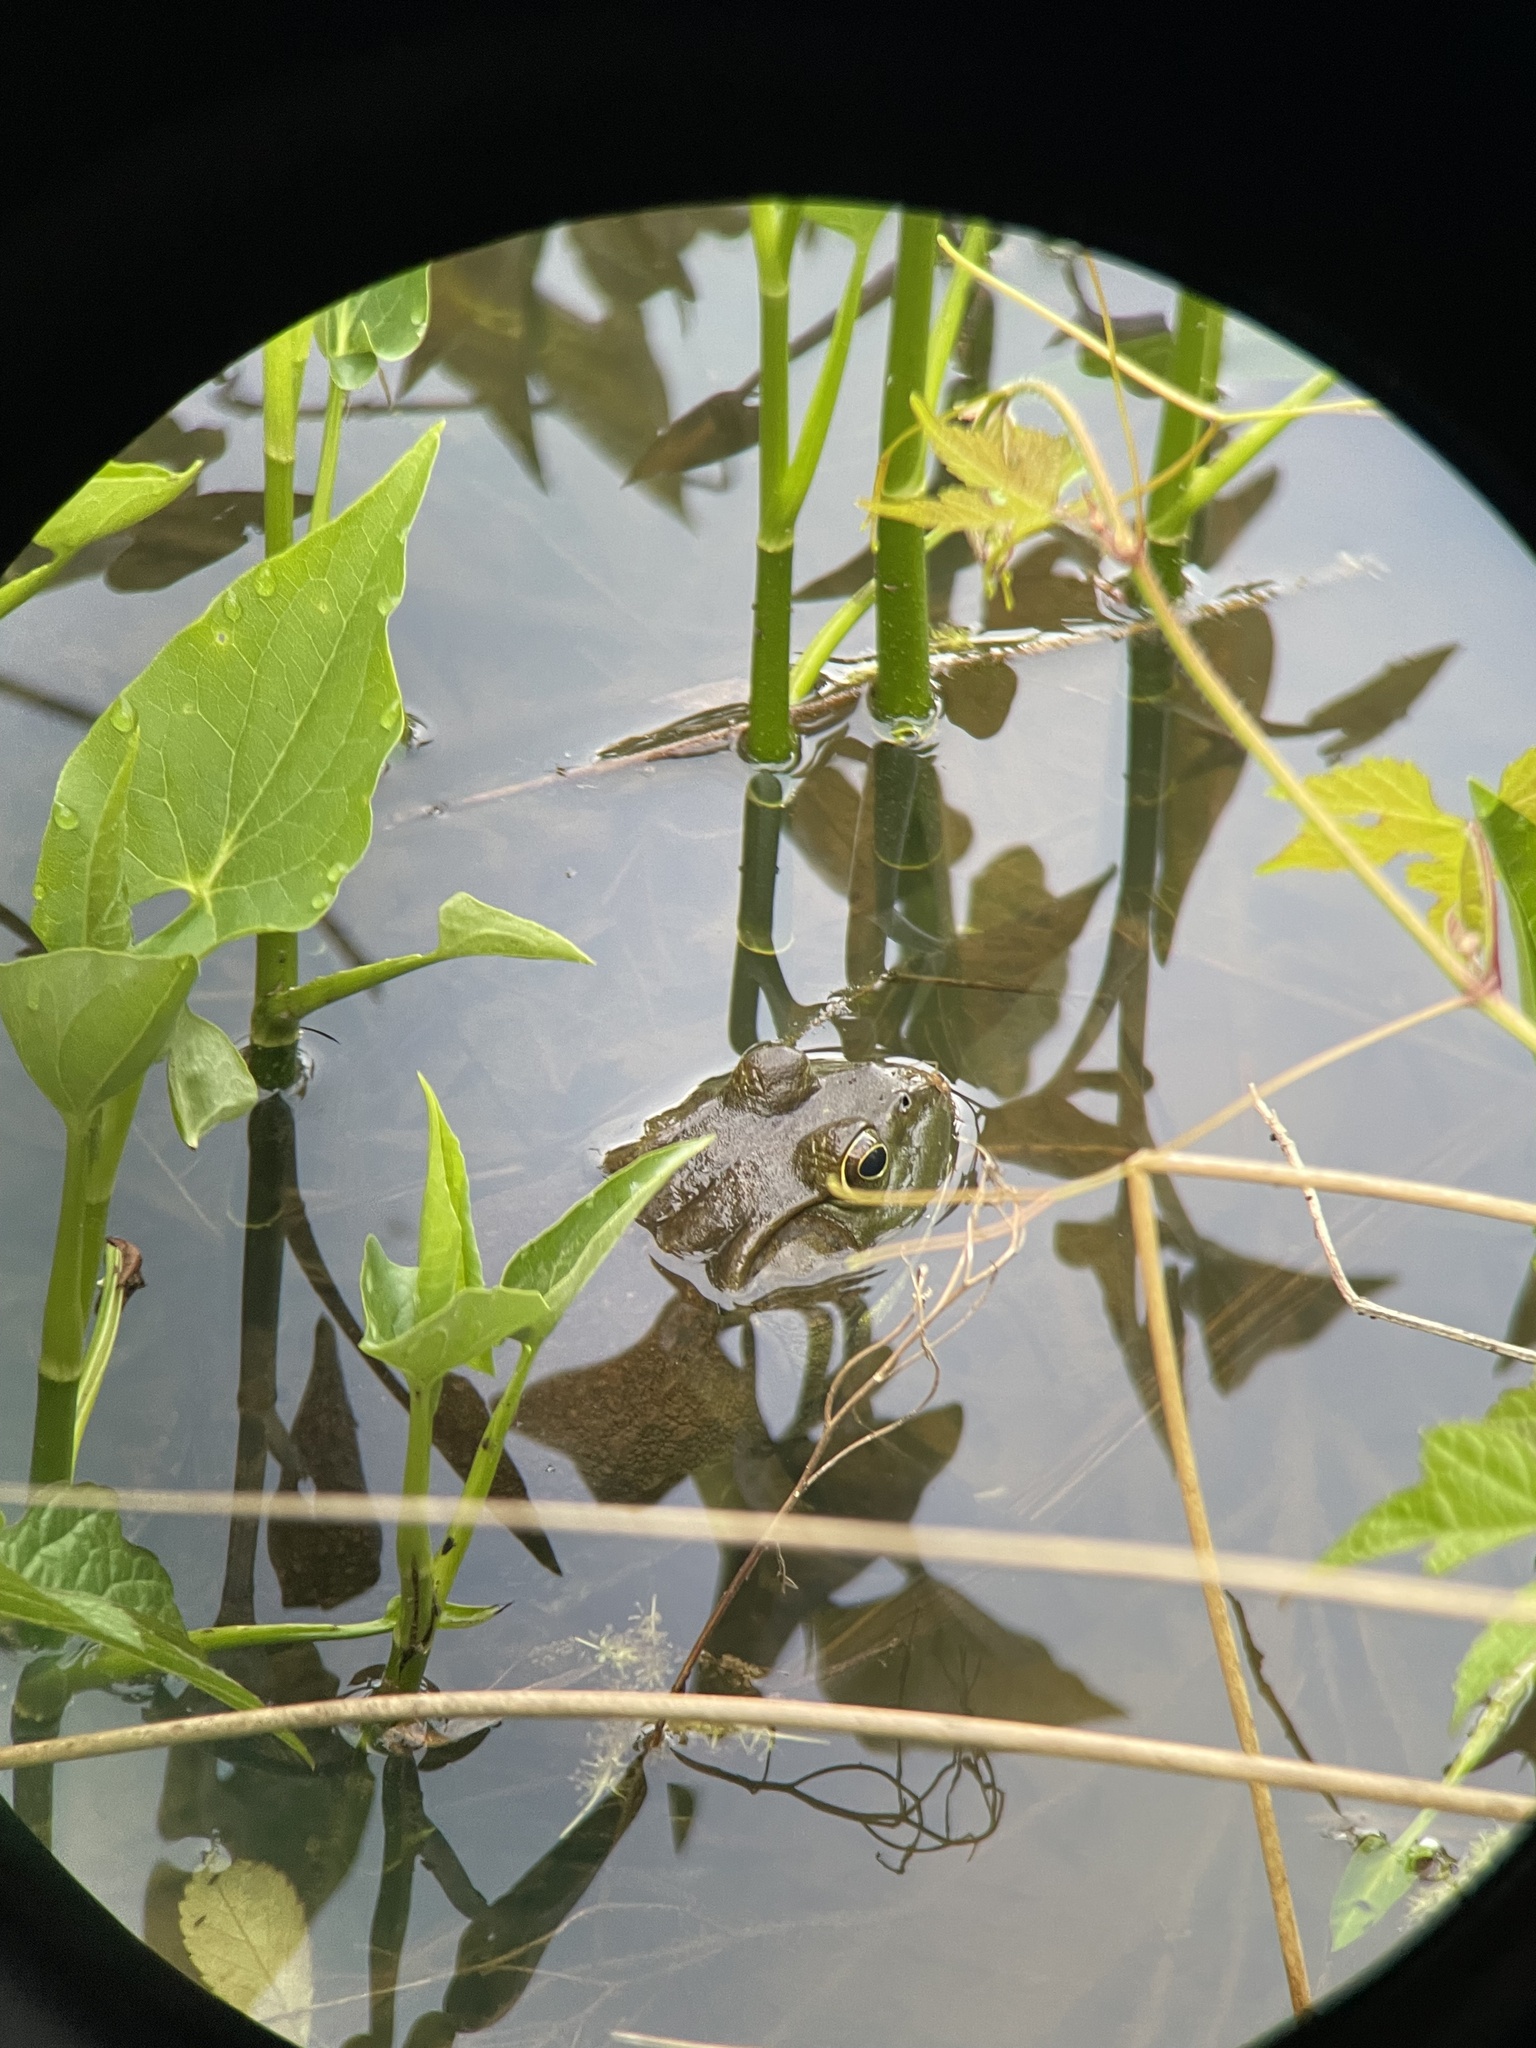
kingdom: Animalia
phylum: Chordata
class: Amphibia
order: Anura
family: Ranidae
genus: Lithobates
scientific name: Lithobates catesbeianus
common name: American bullfrog
